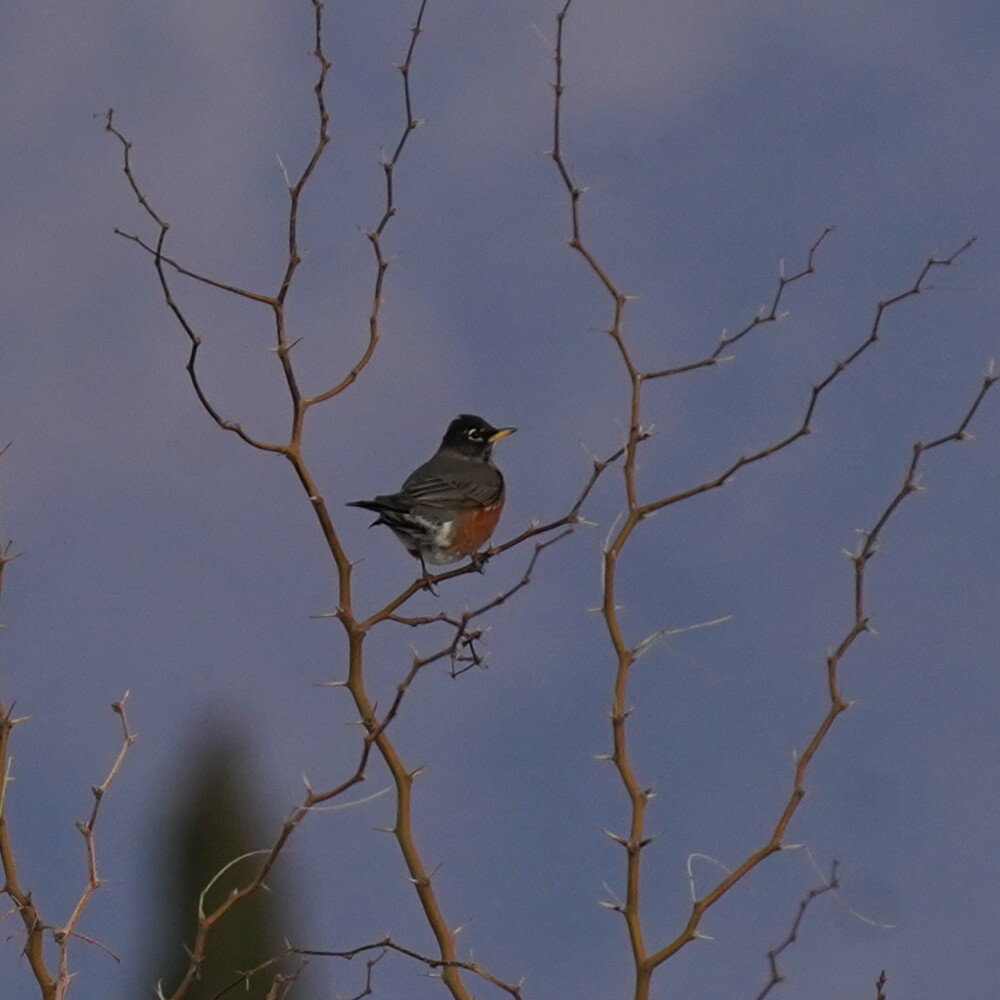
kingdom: Animalia
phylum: Chordata
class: Aves
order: Passeriformes
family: Turdidae
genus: Turdus
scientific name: Turdus migratorius
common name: American robin
